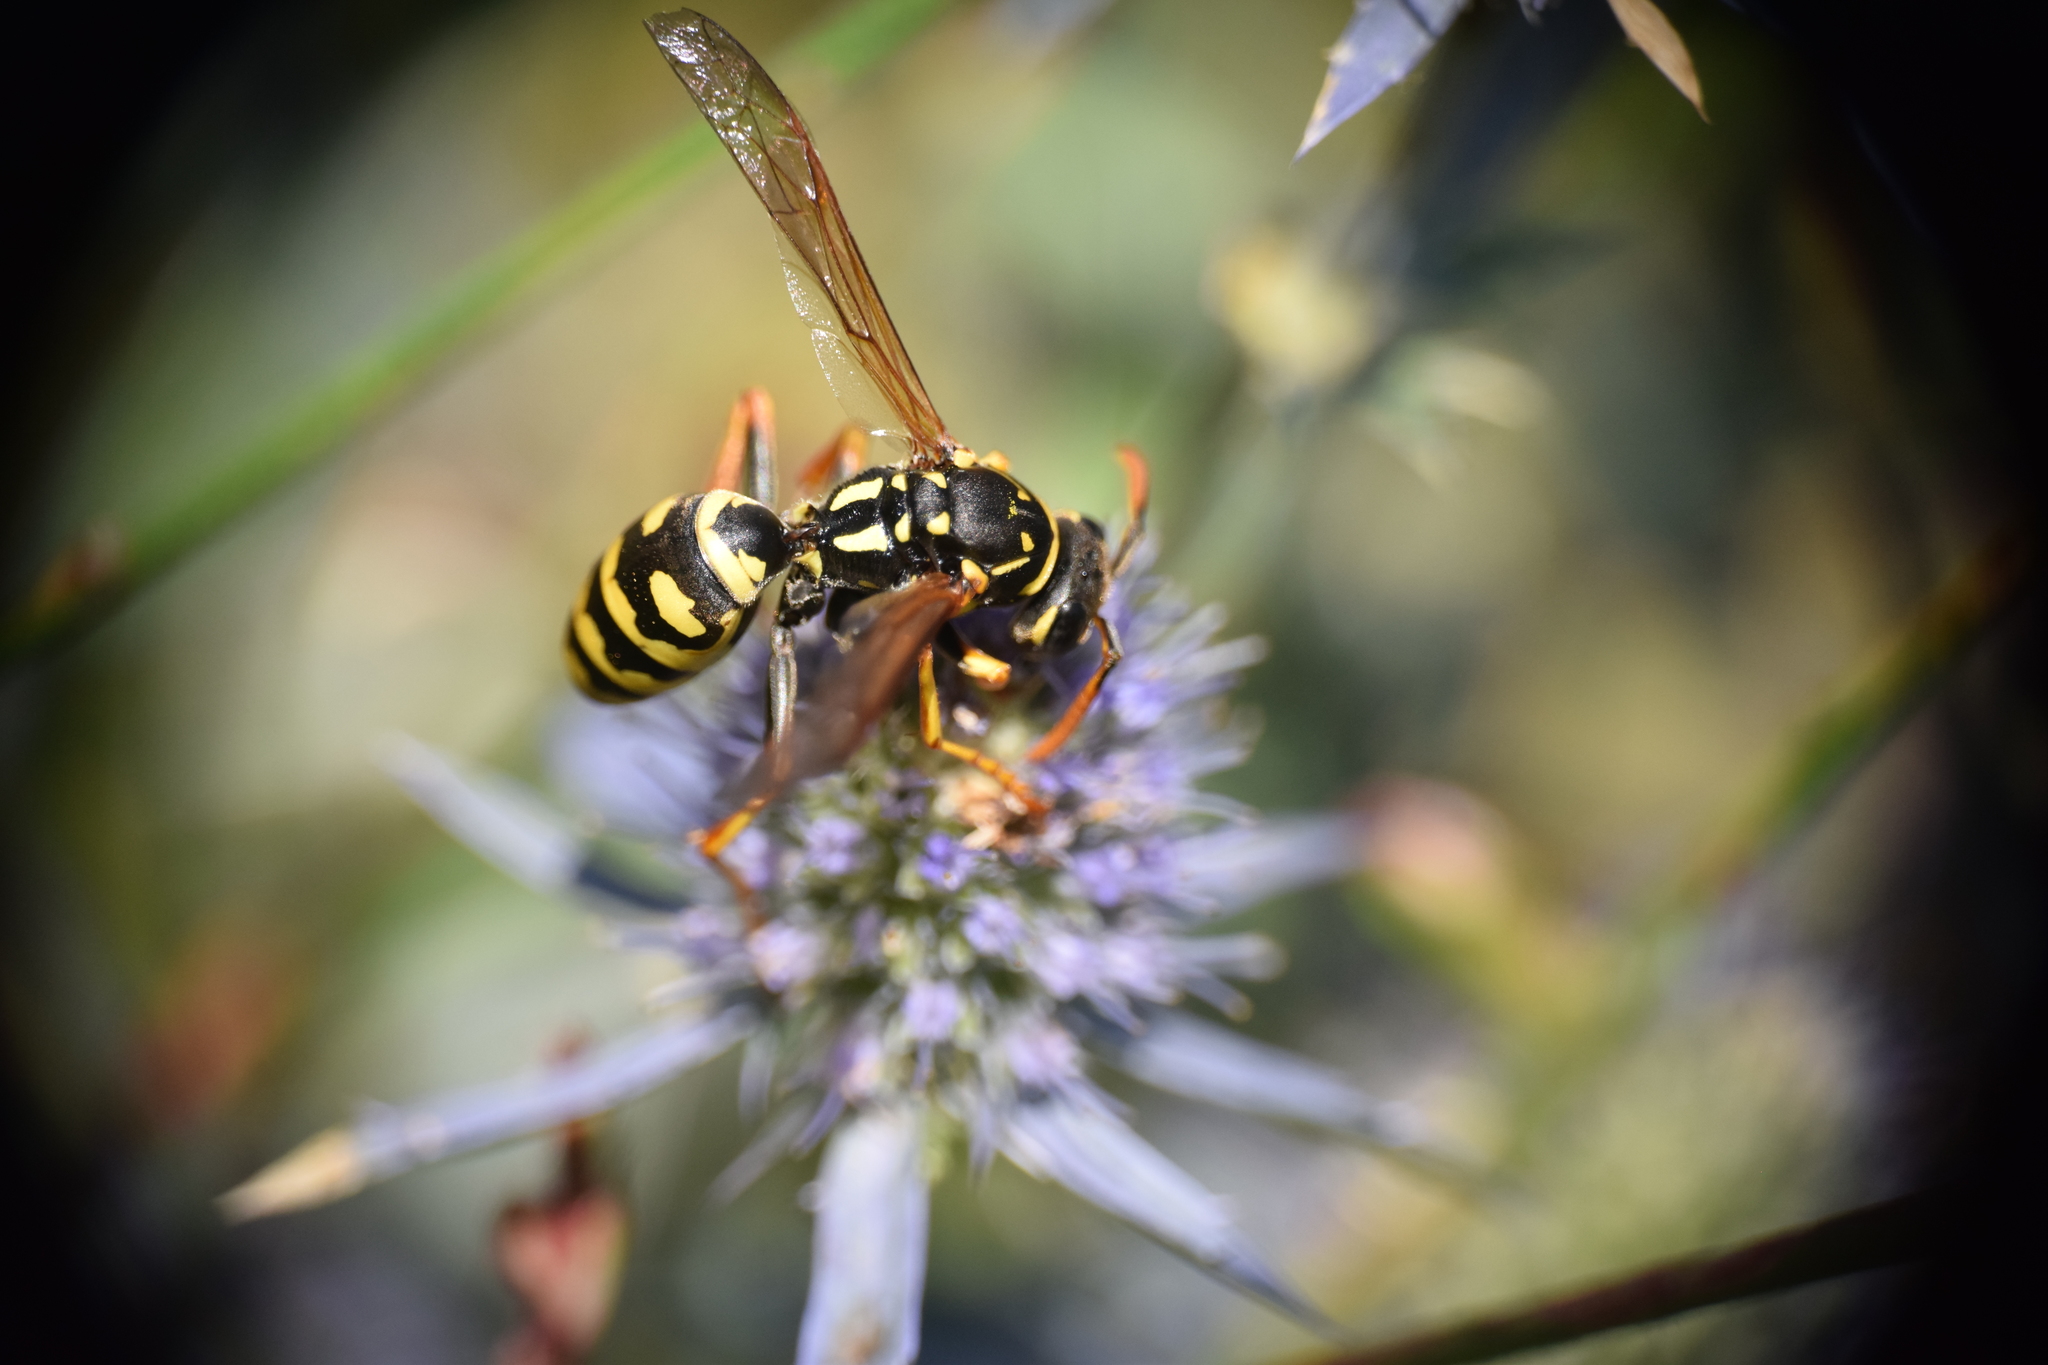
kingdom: Animalia
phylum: Arthropoda
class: Insecta
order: Hymenoptera
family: Crabronidae
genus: Philanthus
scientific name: Philanthus triangulum
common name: Bee wolf
